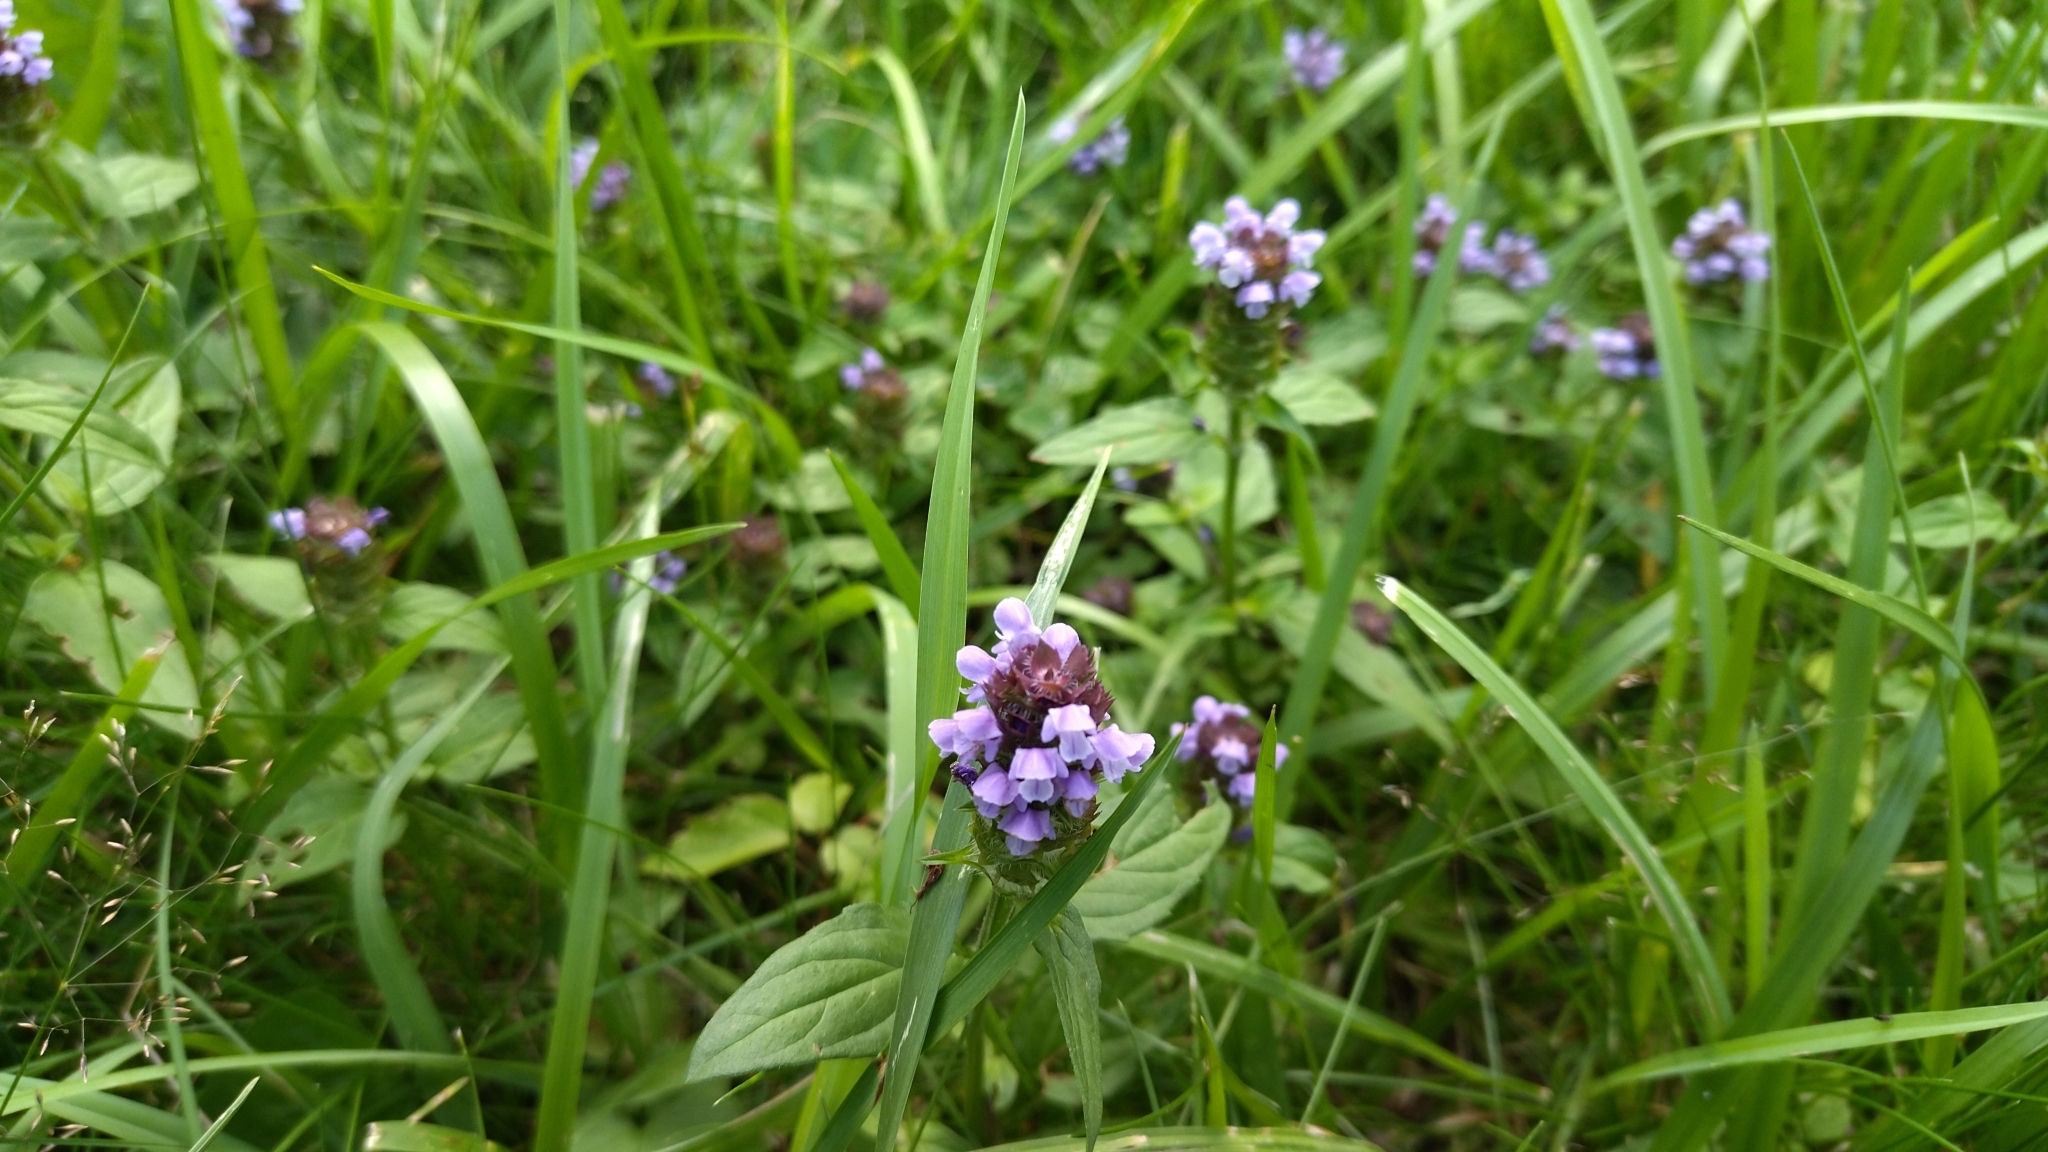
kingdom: Plantae
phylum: Tracheophyta
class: Magnoliopsida
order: Lamiales
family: Lamiaceae
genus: Prunella
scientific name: Prunella vulgaris
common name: Heal-all
